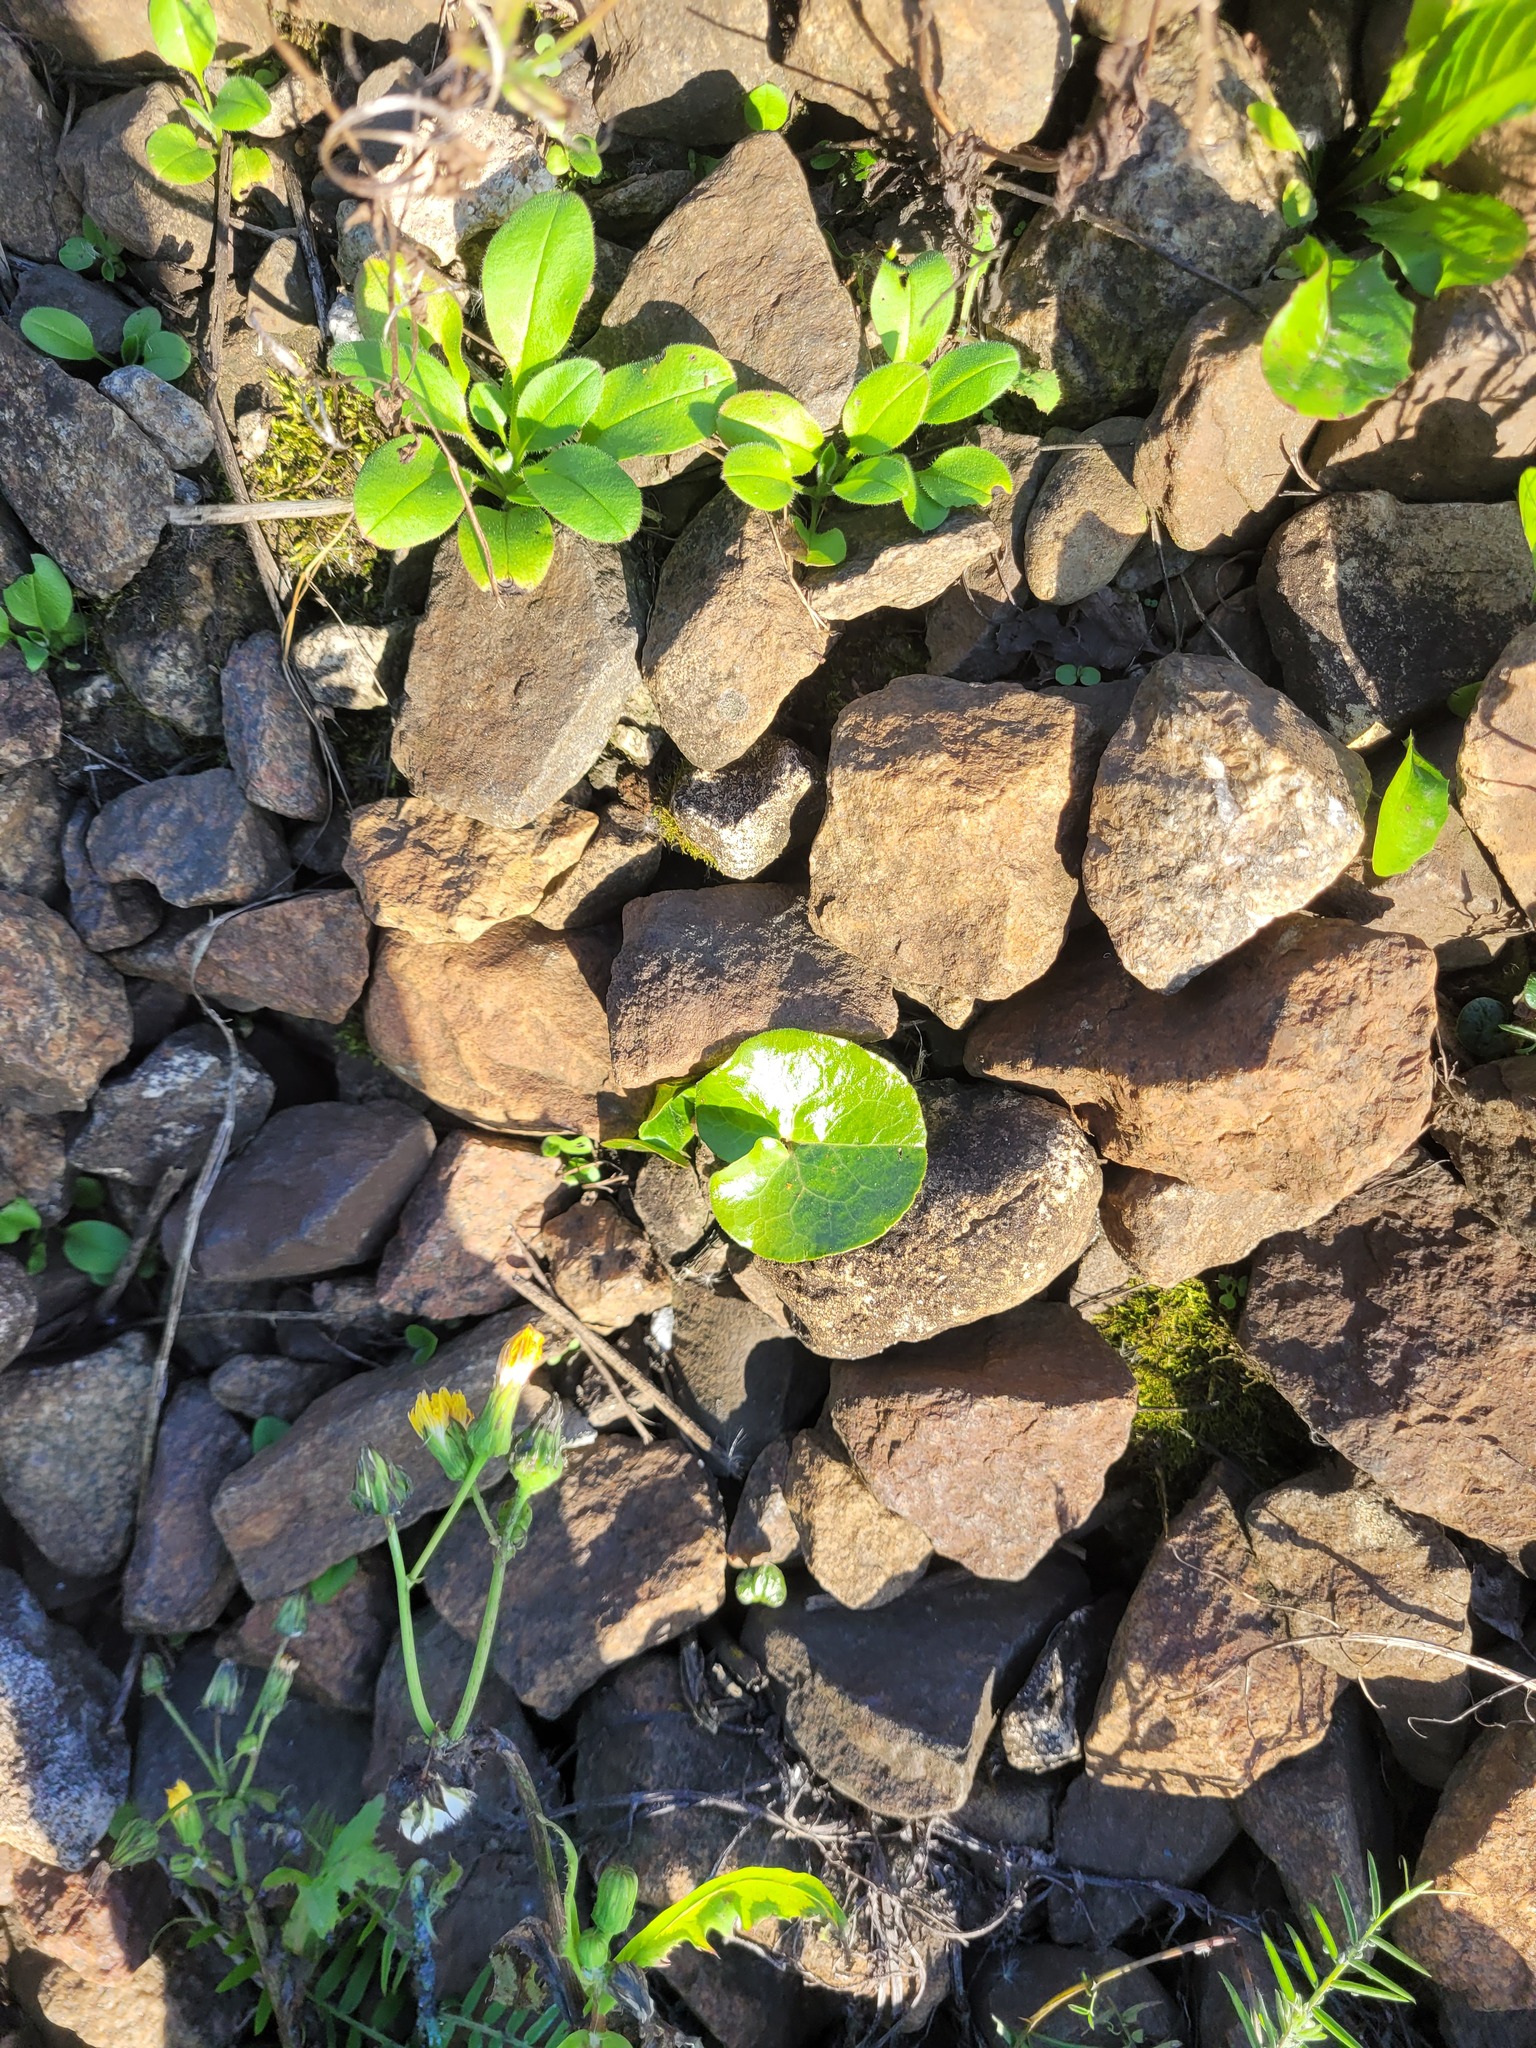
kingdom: Plantae
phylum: Tracheophyta
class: Magnoliopsida
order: Piperales
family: Aristolochiaceae
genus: Asarum
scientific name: Asarum europaeum
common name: Asarabacca
